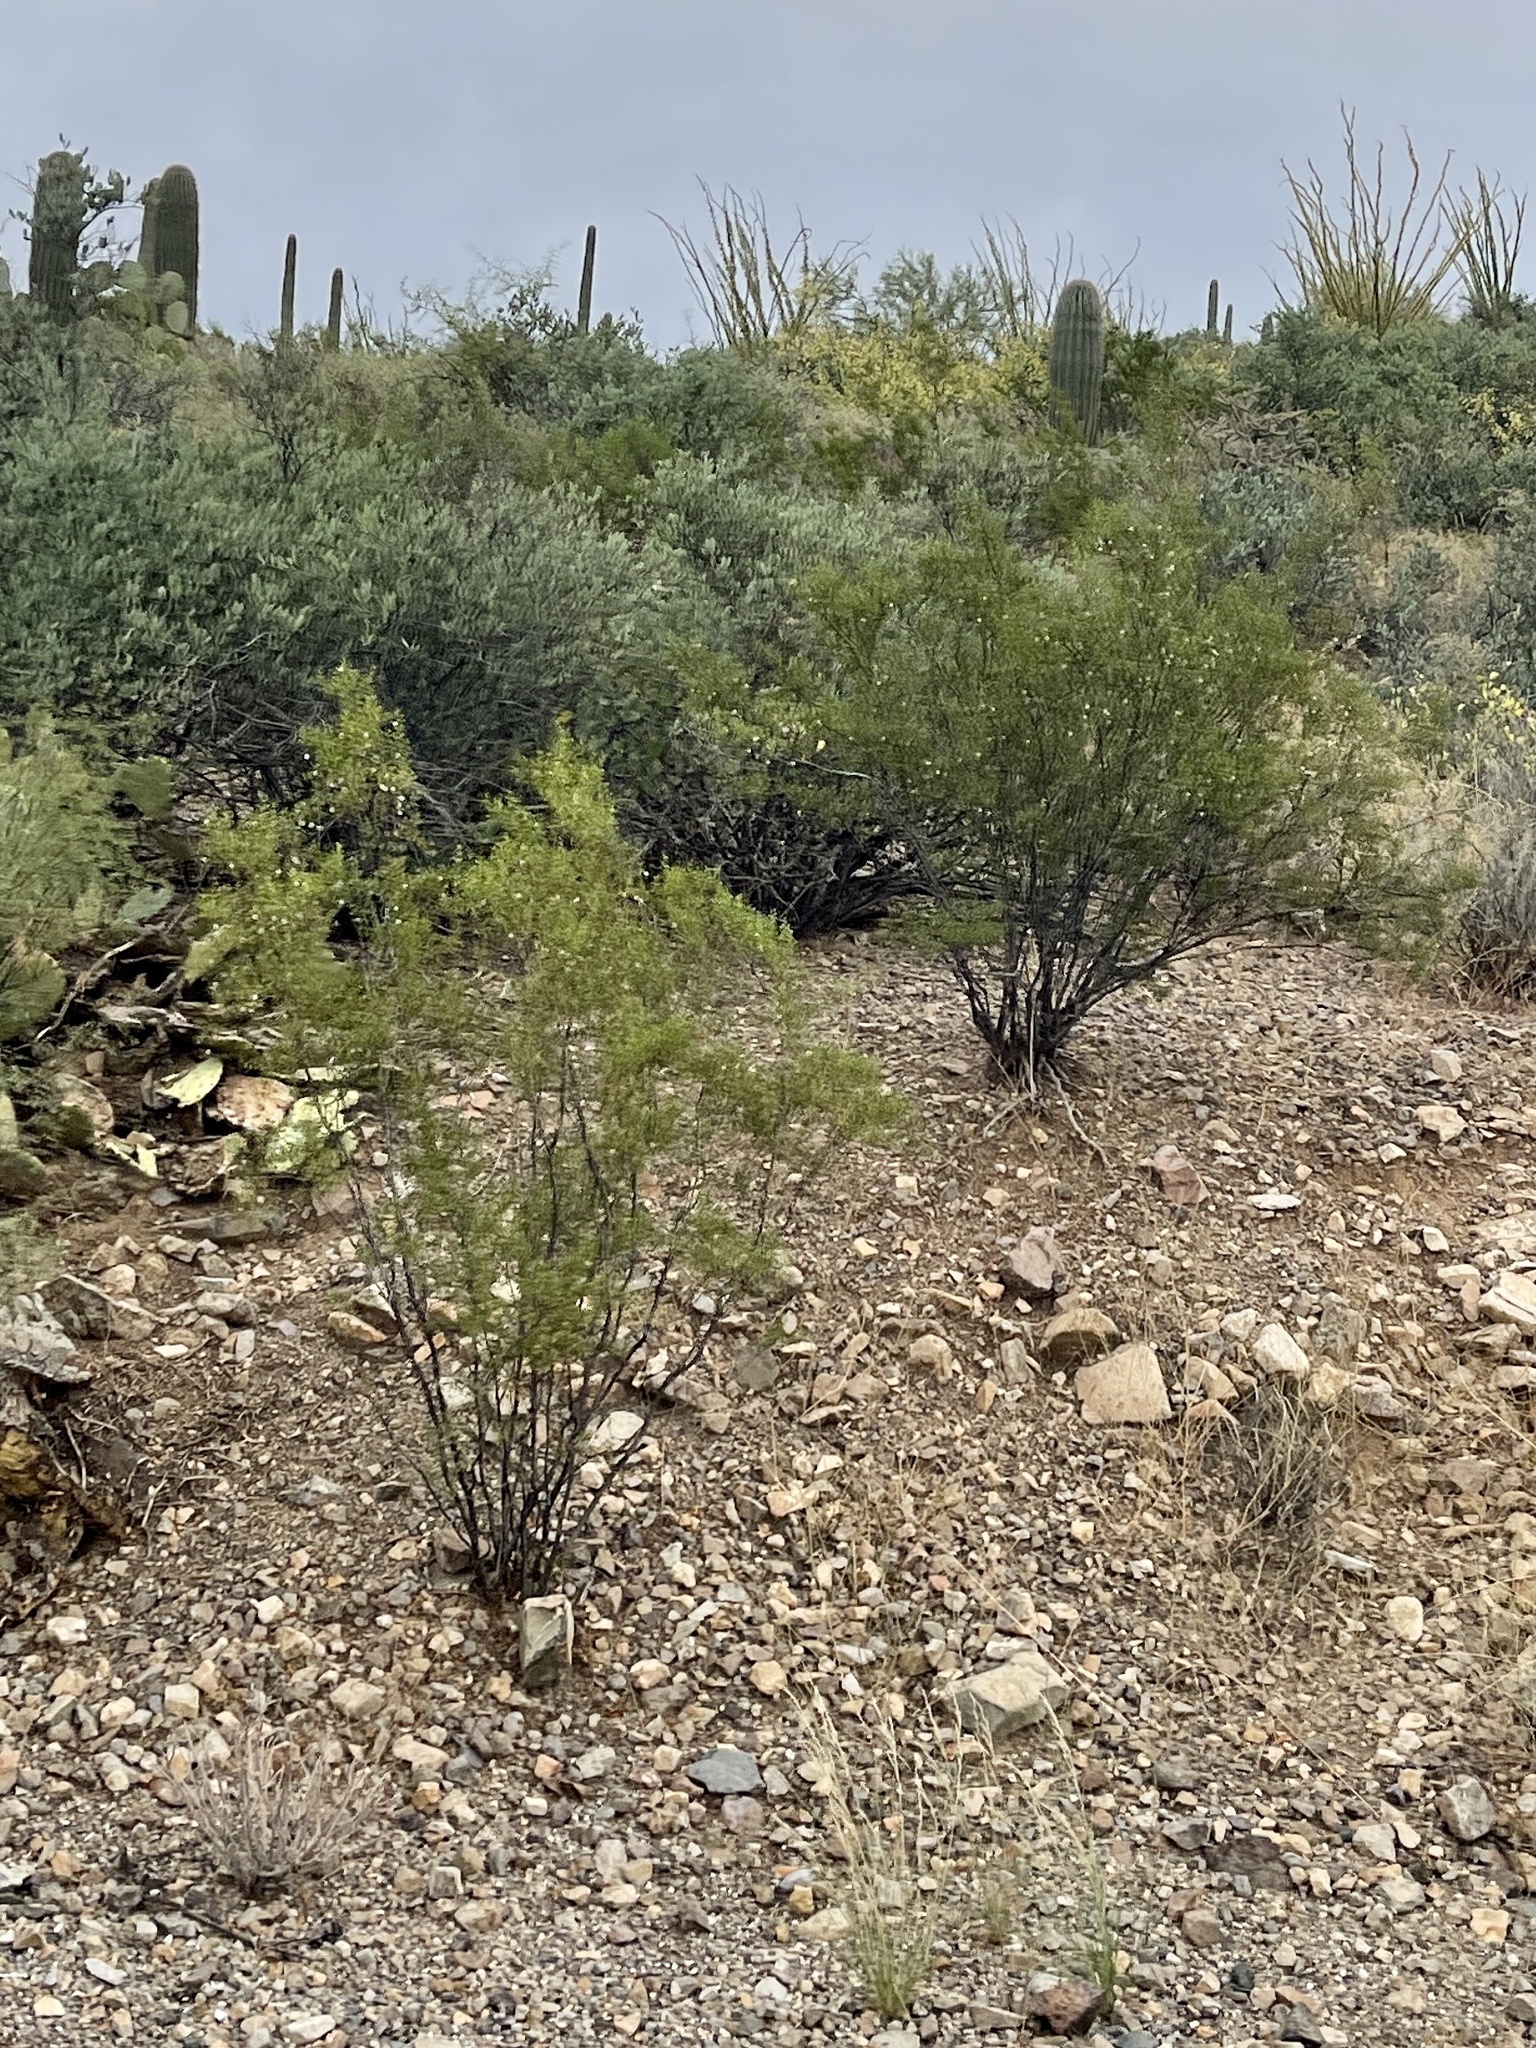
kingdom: Plantae
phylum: Tracheophyta
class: Magnoliopsida
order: Zygophyllales
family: Zygophyllaceae
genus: Larrea
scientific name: Larrea tridentata
